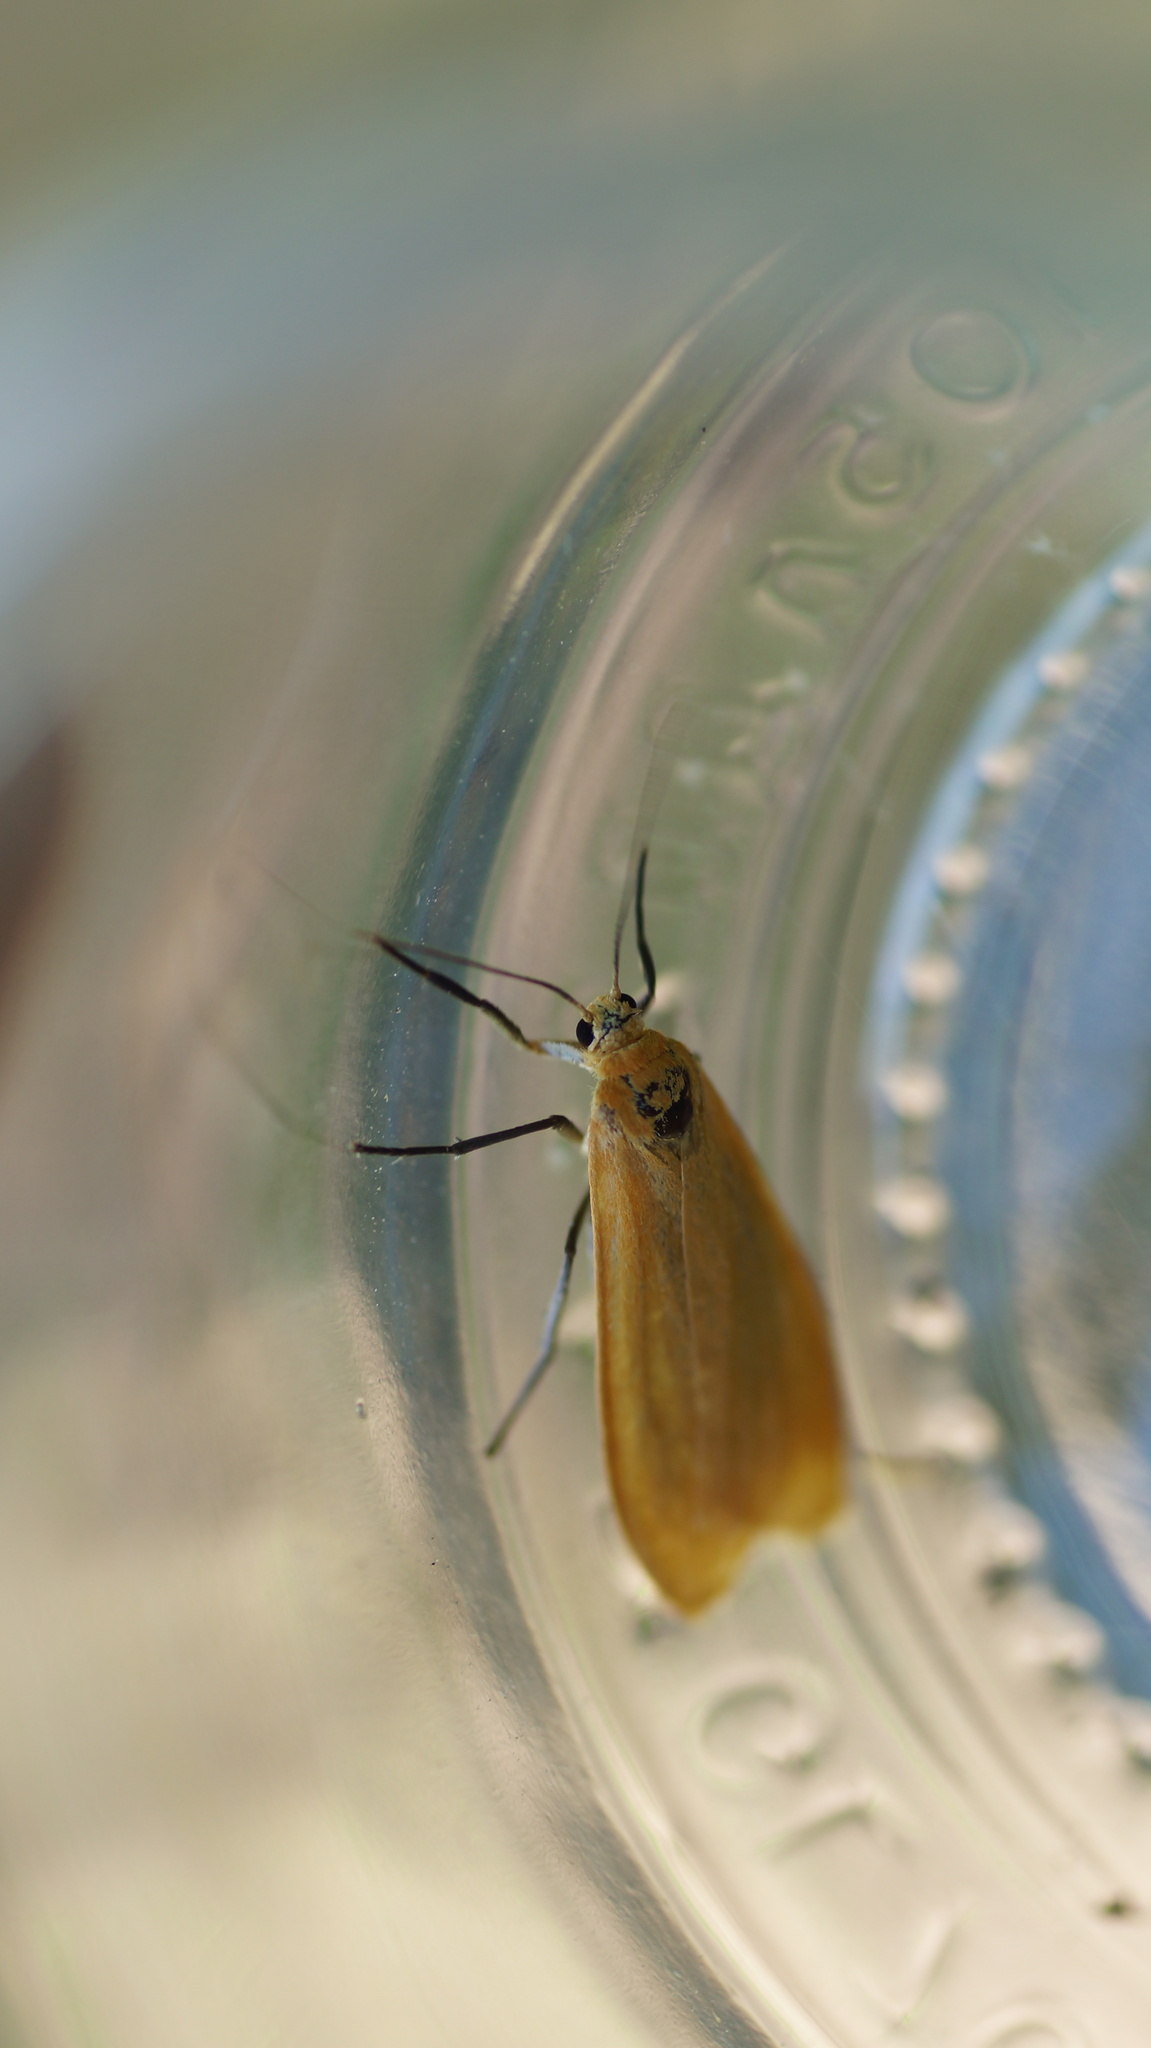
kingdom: Animalia
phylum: Arthropoda
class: Insecta
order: Lepidoptera
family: Erebidae
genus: Wittia
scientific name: Wittia sororcula
